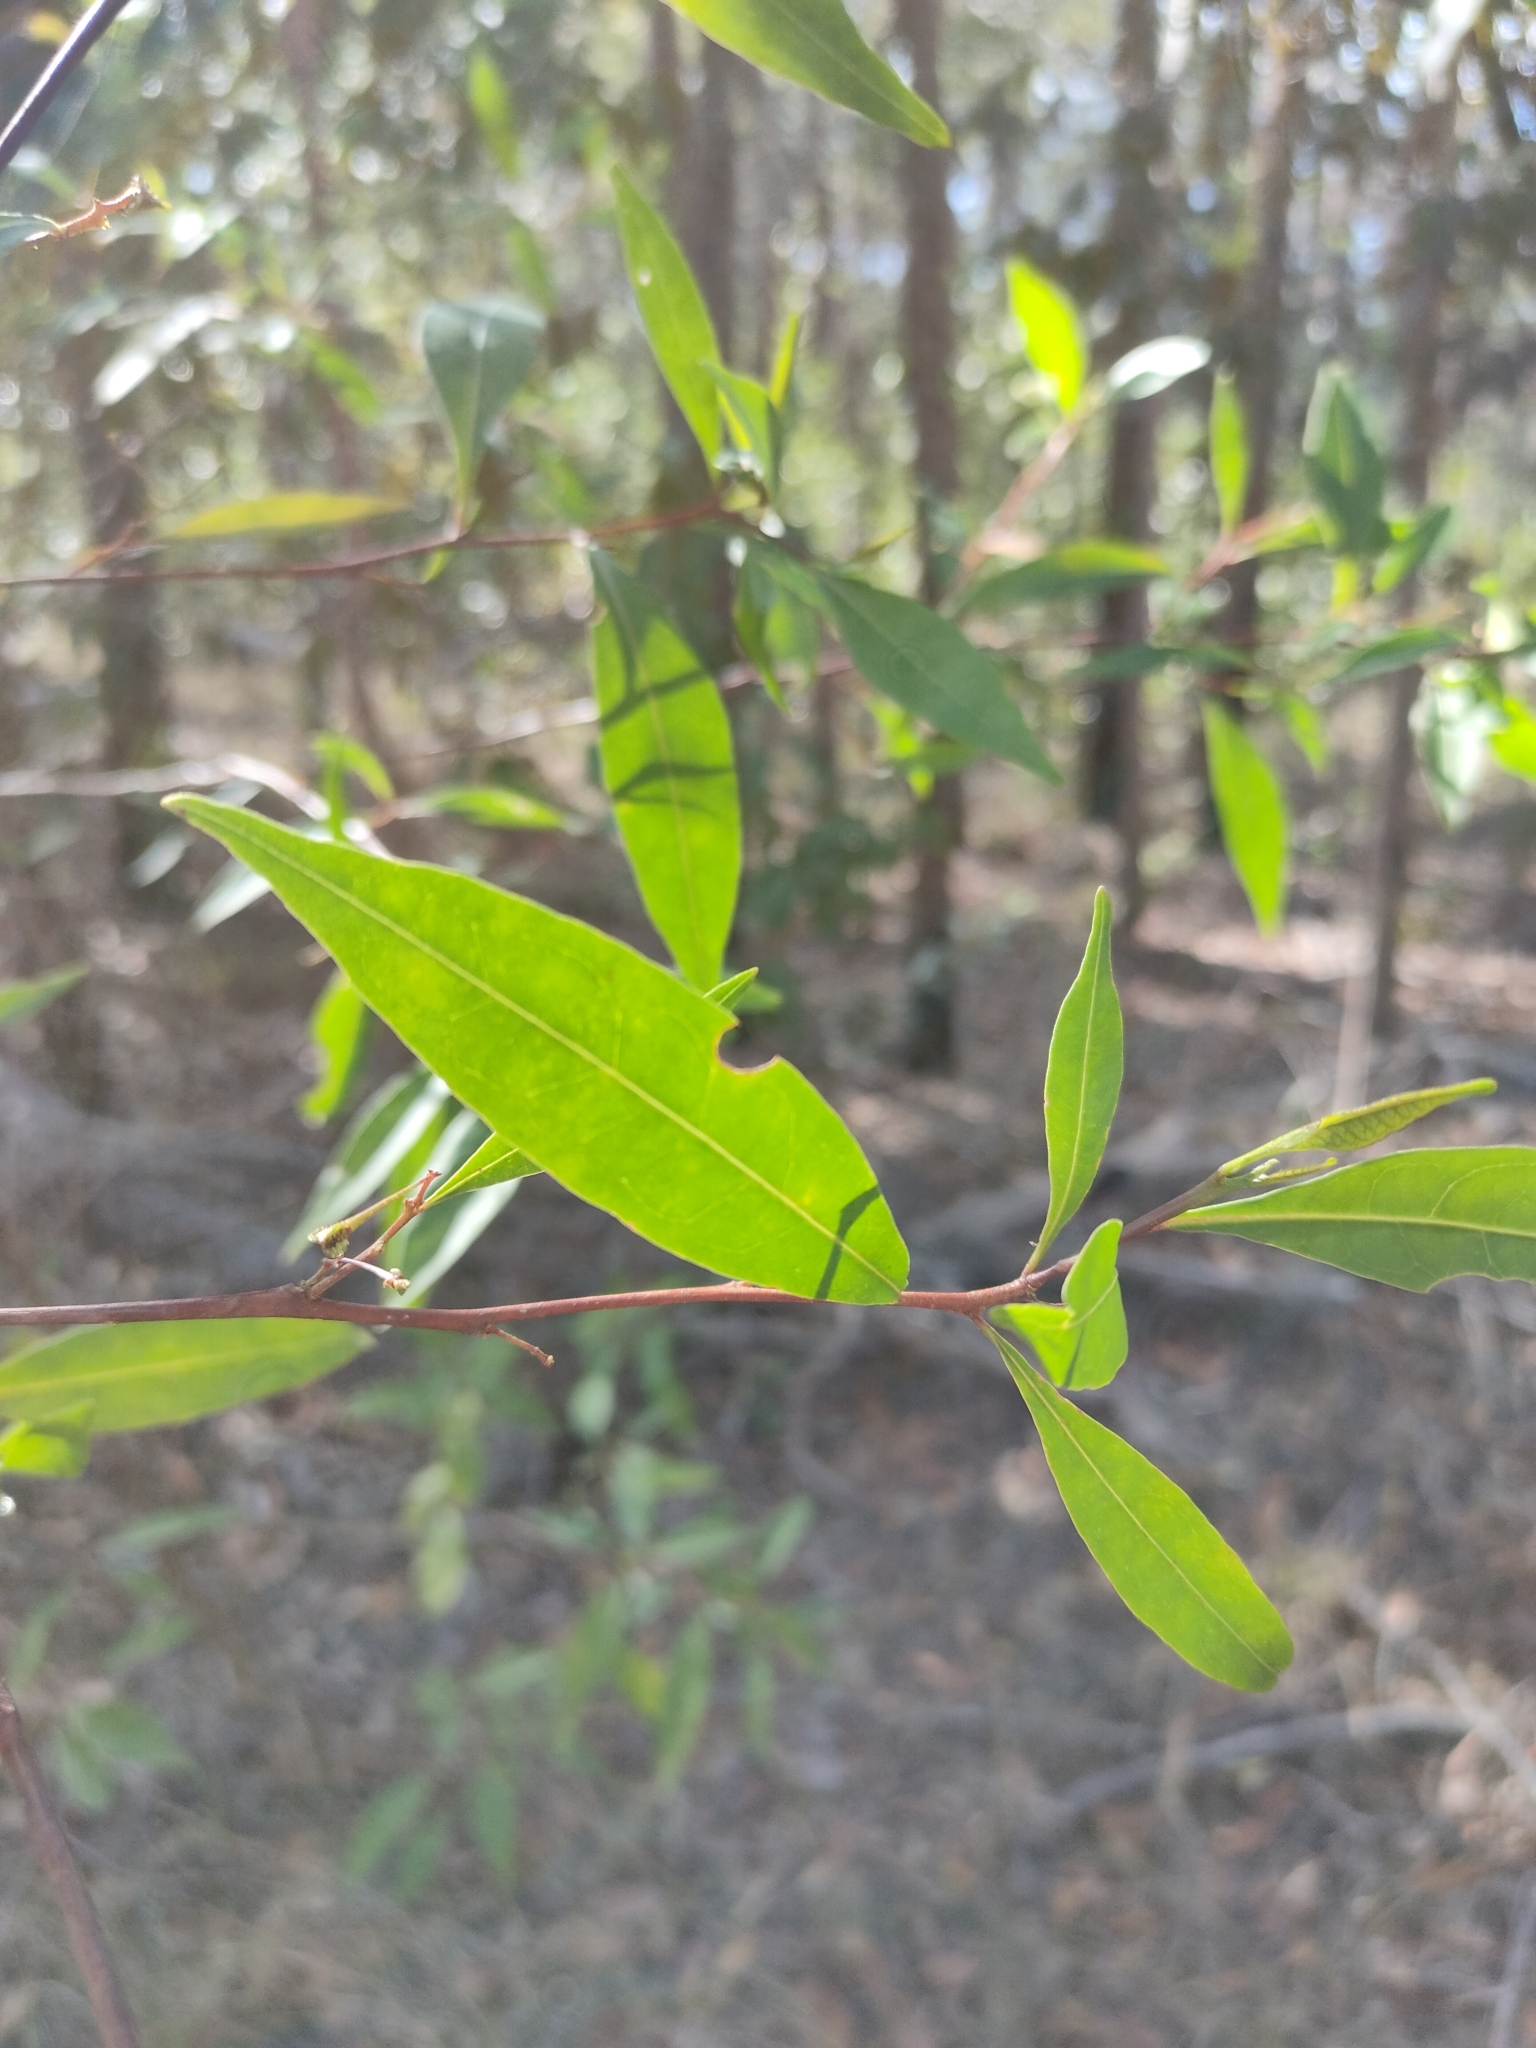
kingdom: Plantae
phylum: Tracheophyta
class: Magnoliopsida
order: Sapindales
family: Sapindaceae
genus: Dodonaea
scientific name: Dodonaea triquetra
